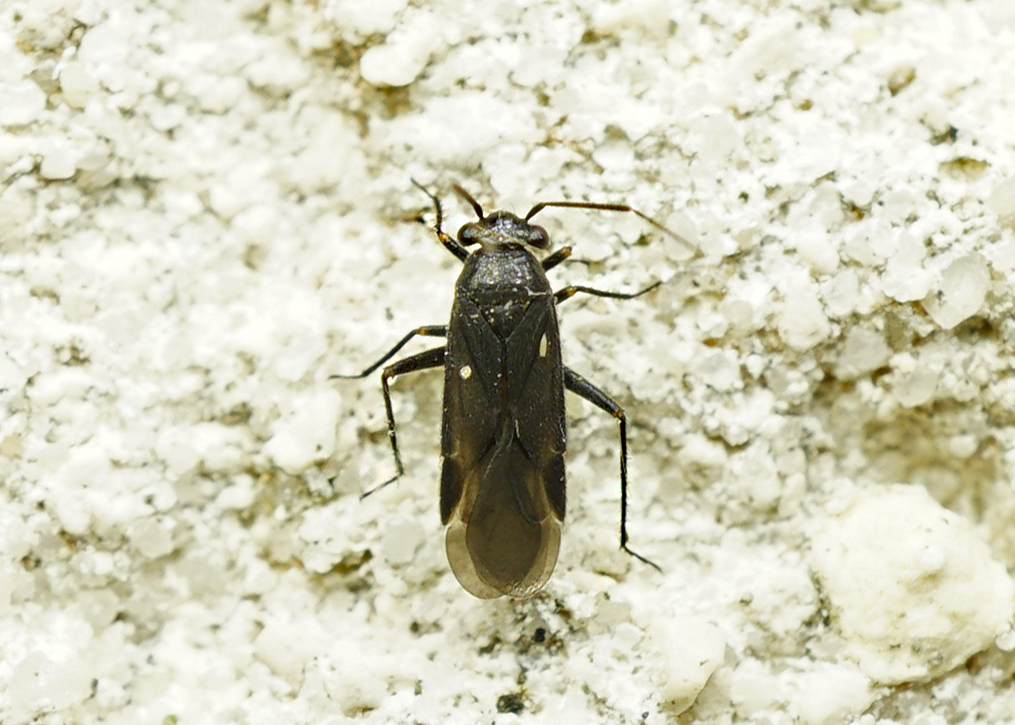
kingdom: Animalia
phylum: Arthropoda
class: Insecta
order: Hemiptera
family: Miridae
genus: Pachytomella
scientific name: Pachytomella parallela
